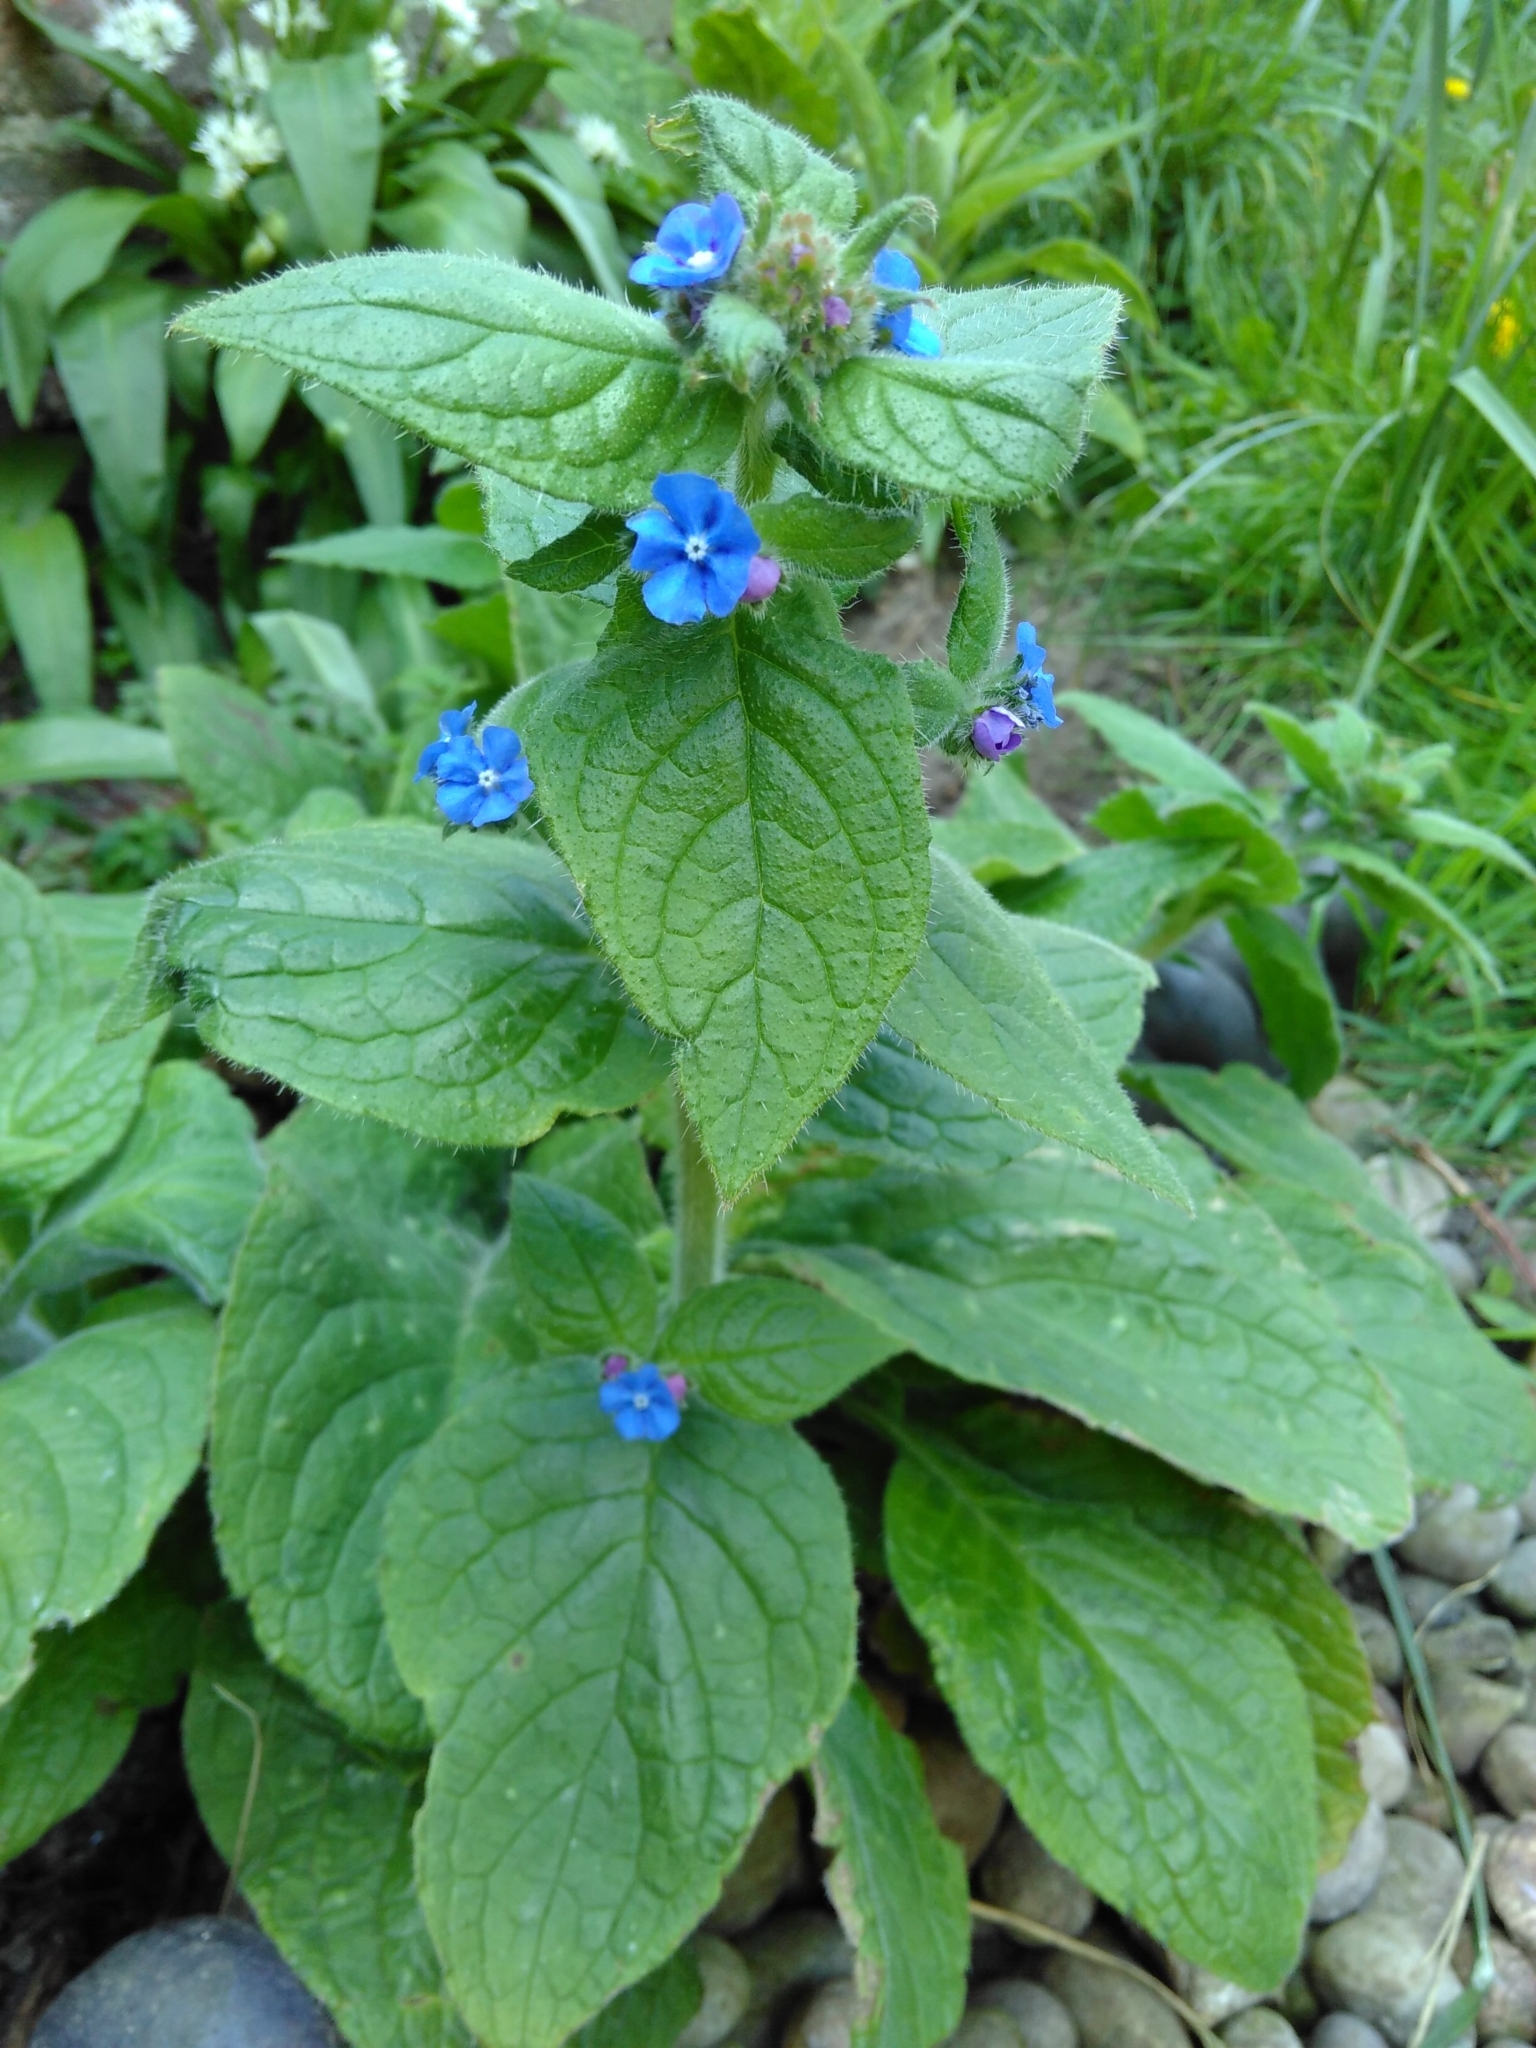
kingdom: Plantae
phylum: Tracheophyta
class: Magnoliopsida
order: Boraginales
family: Boraginaceae
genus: Pentaglottis
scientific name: Pentaglottis sempervirens
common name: Green alkanet
